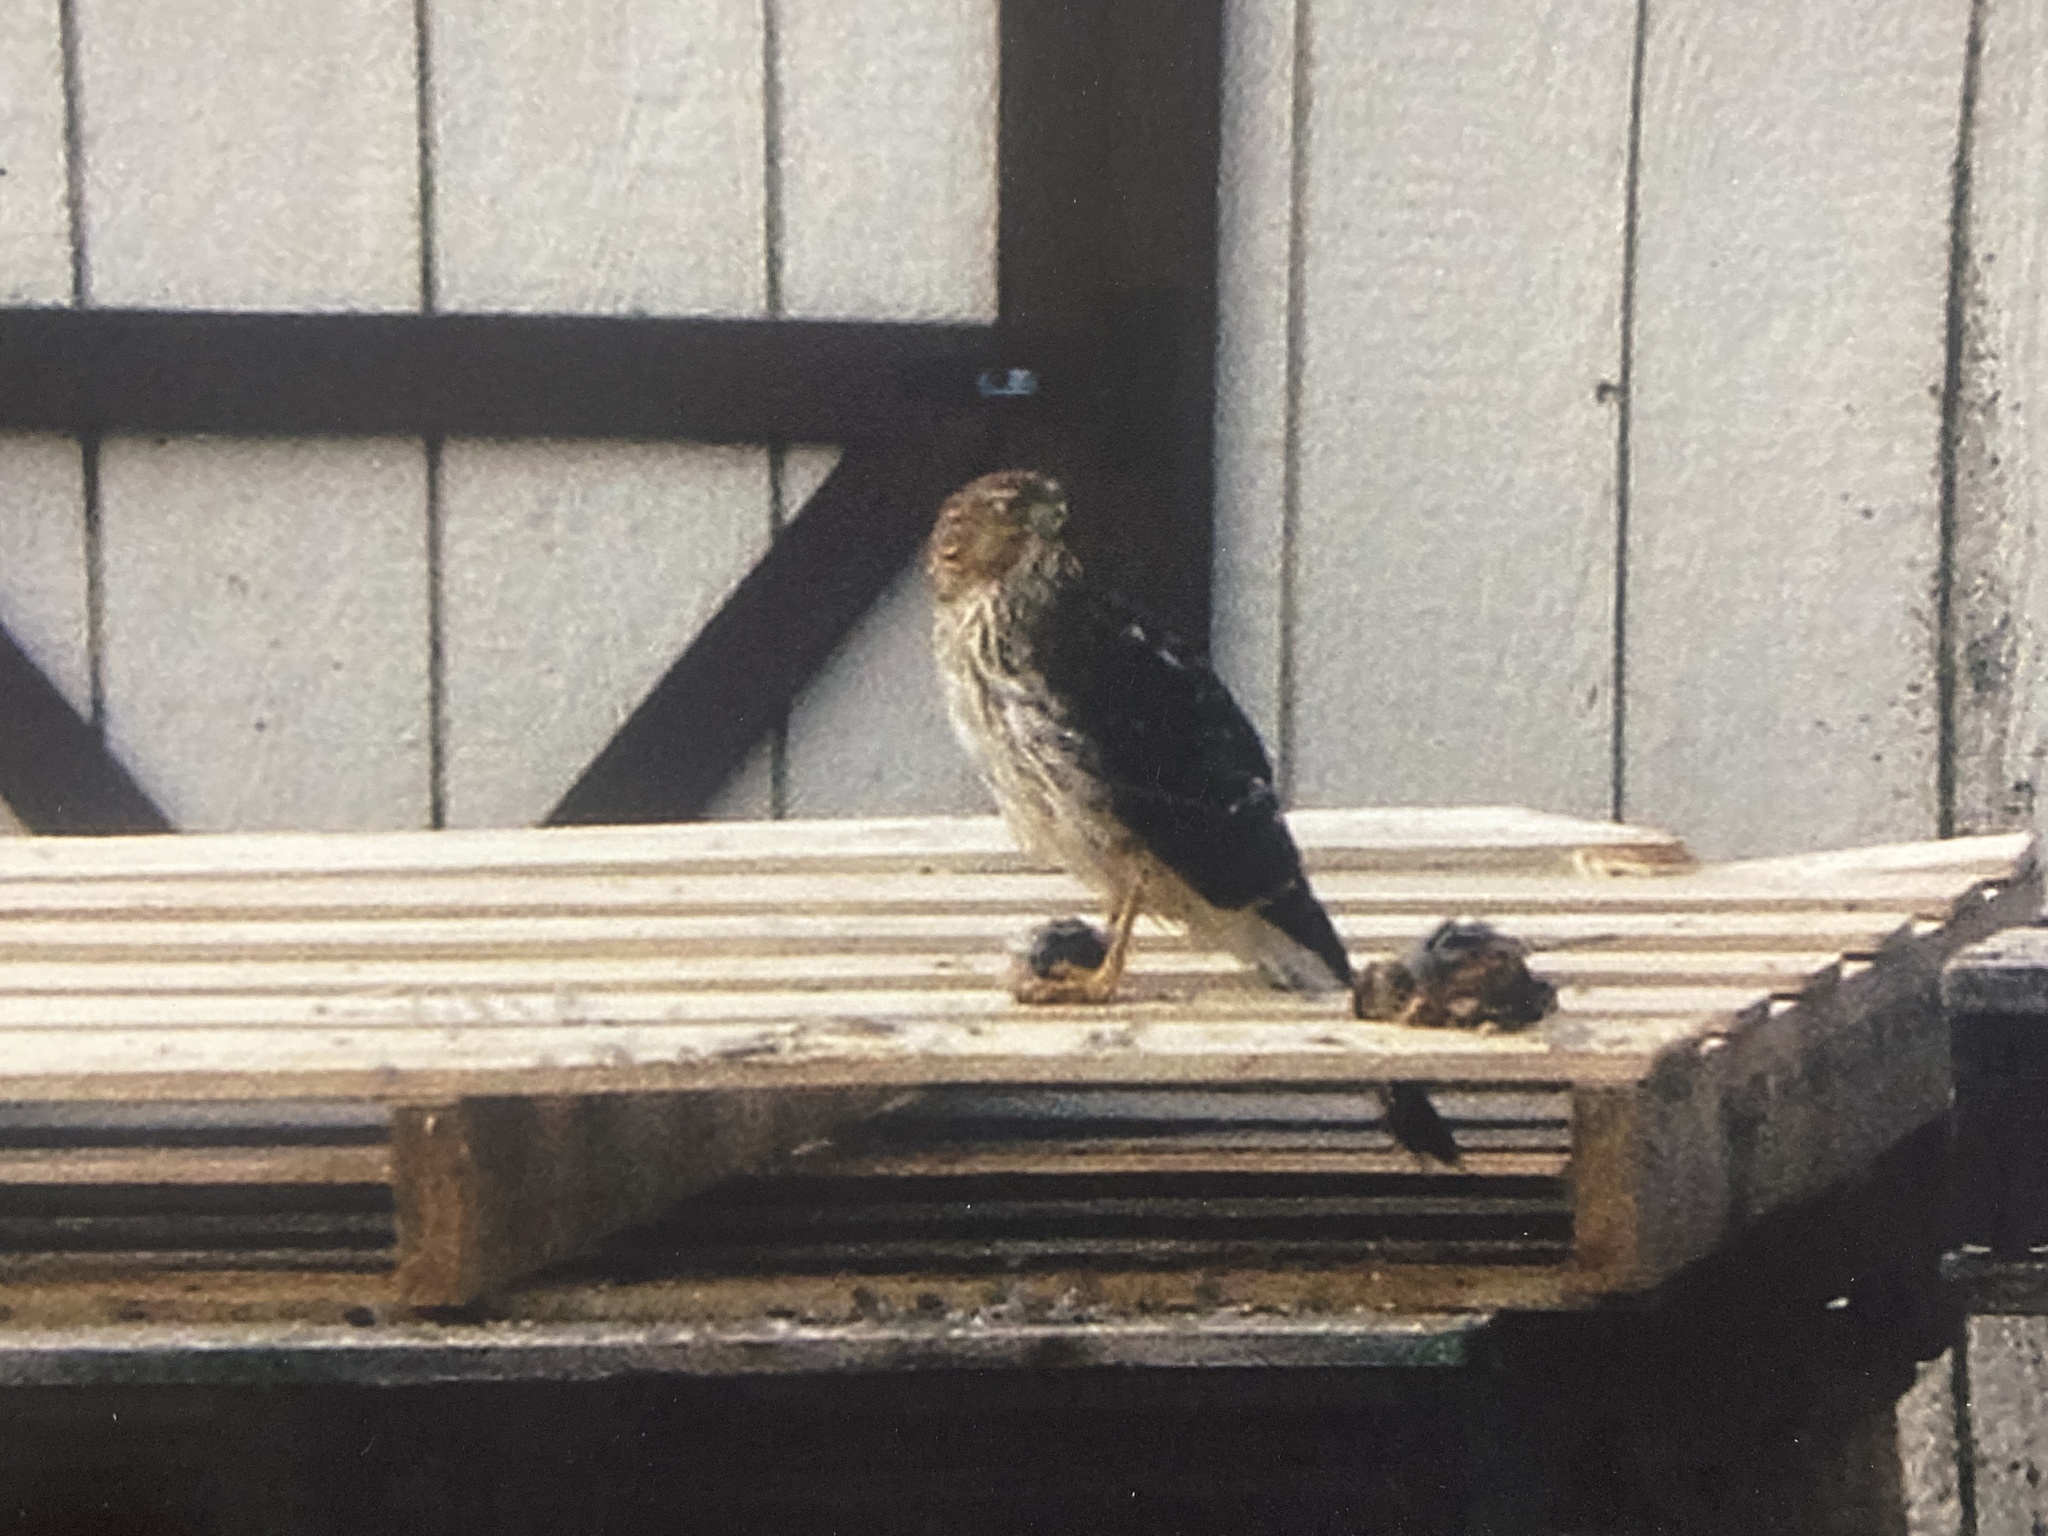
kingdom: Animalia
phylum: Chordata
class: Aves
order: Accipitriformes
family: Accipitridae
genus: Accipiter
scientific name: Accipiter cooperii
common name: Cooper's hawk
